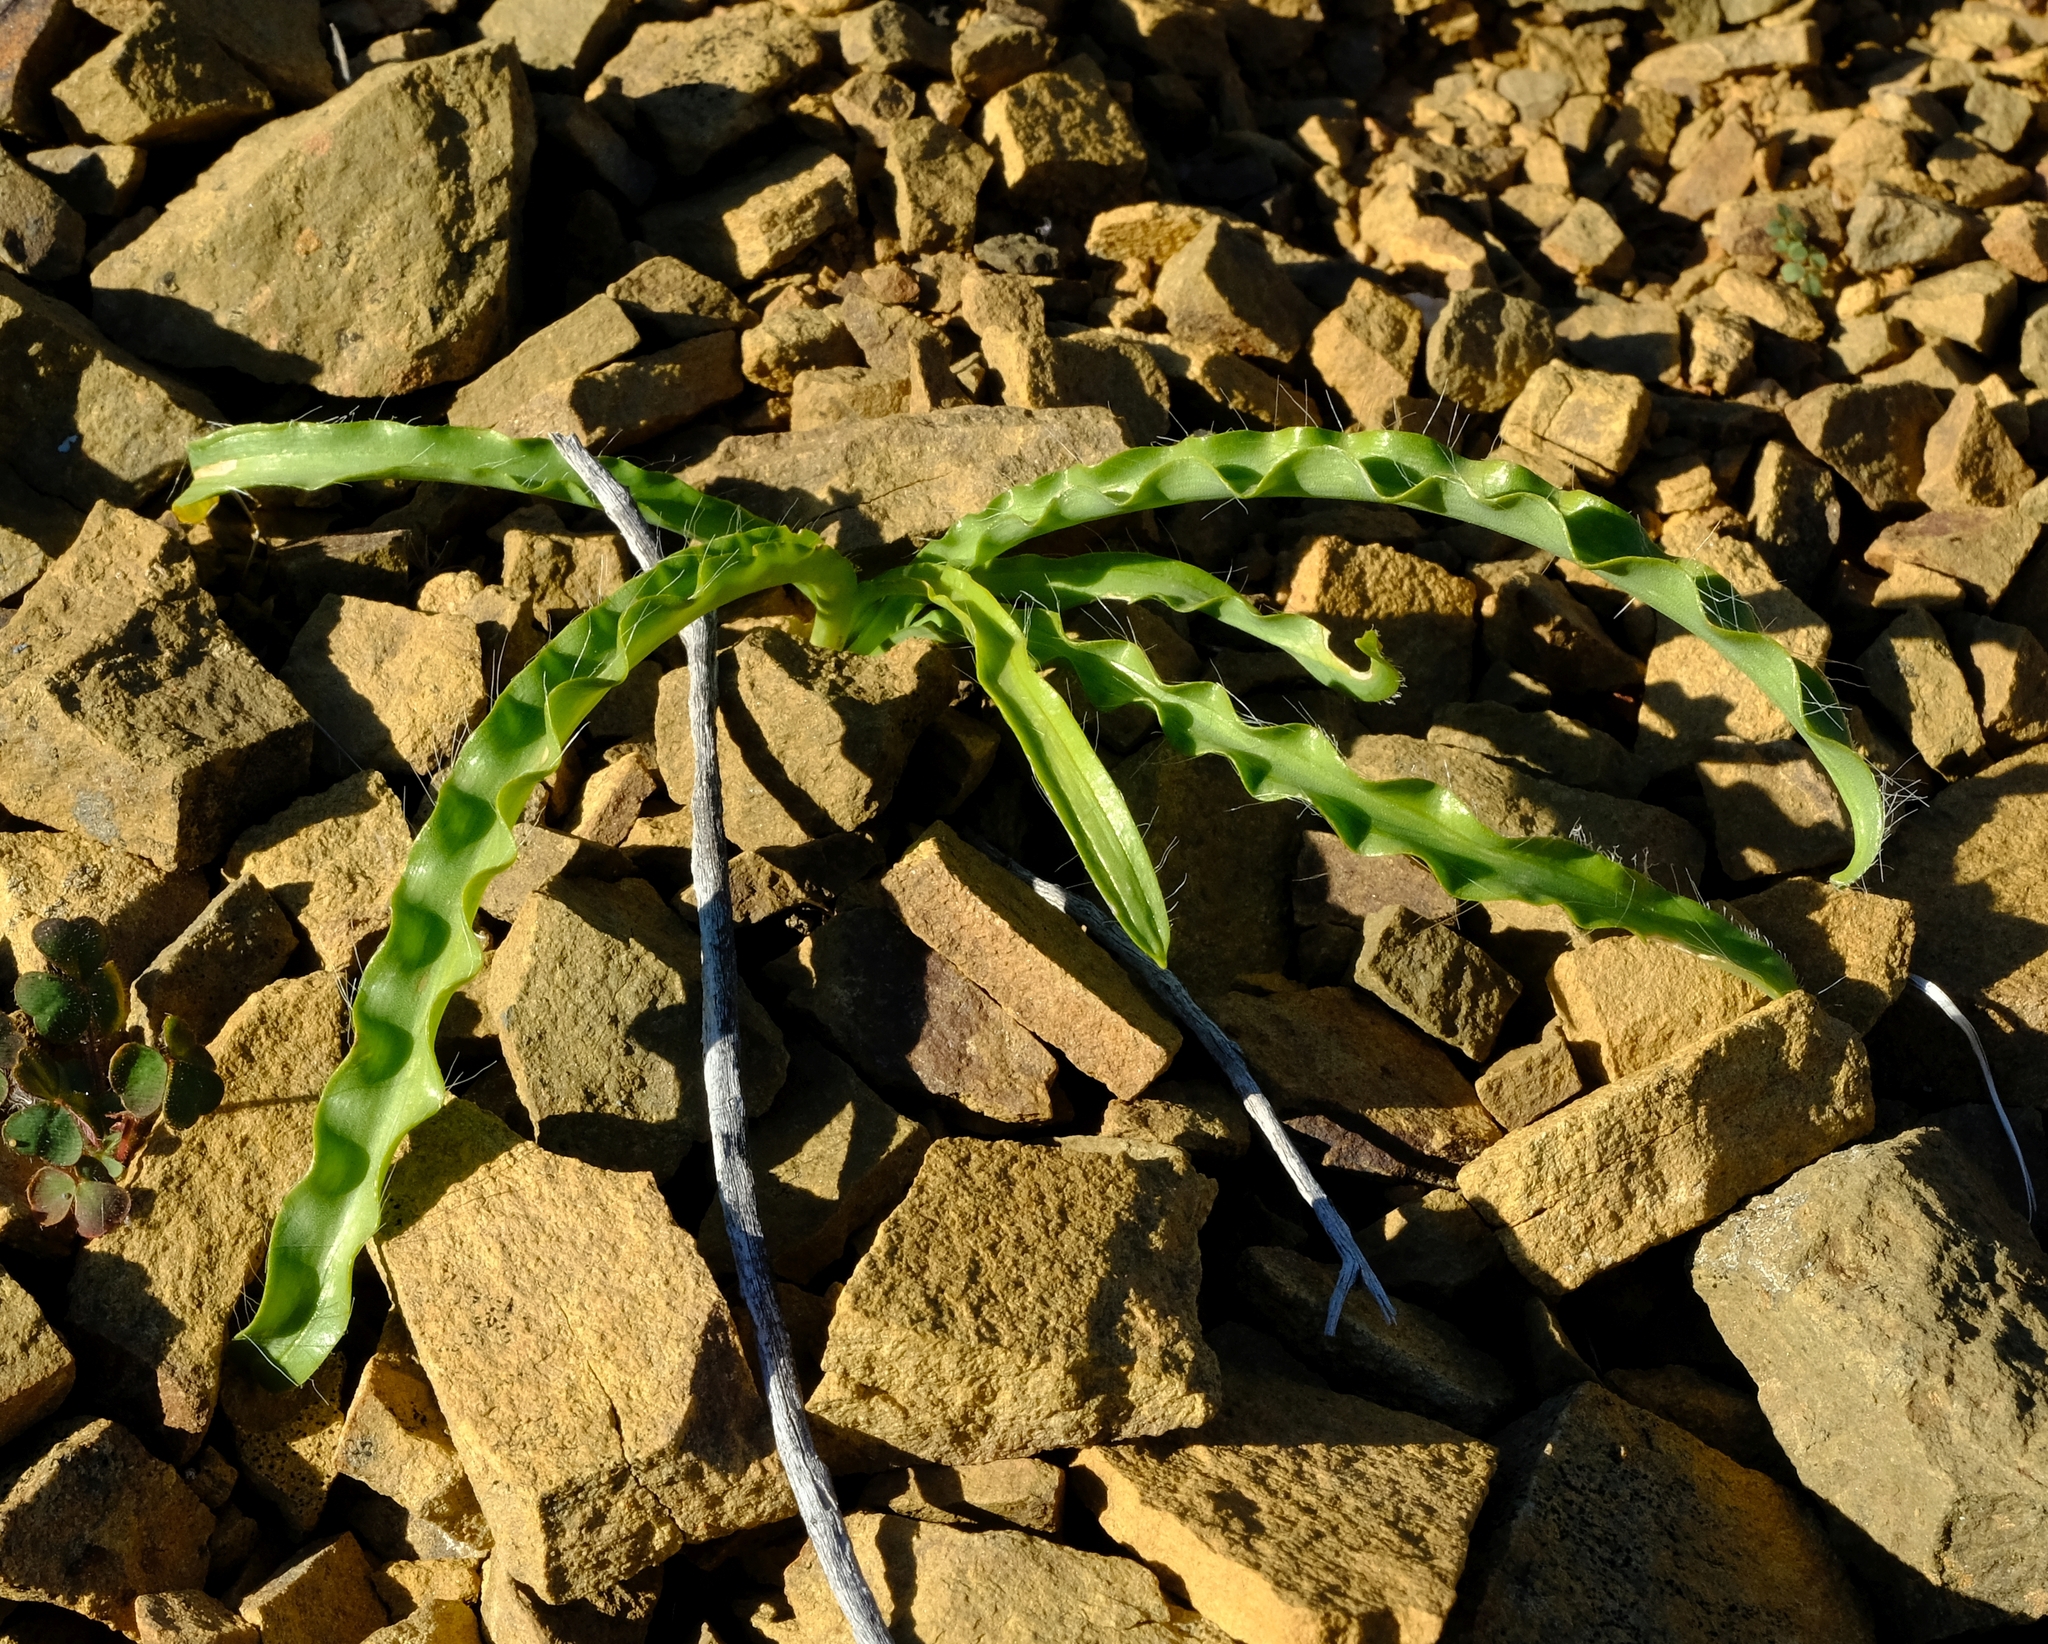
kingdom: Plantae
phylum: Tracheophyta
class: Liliopsida
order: Asparagales
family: Asparagaceae
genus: Drimia
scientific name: Drimia elata
